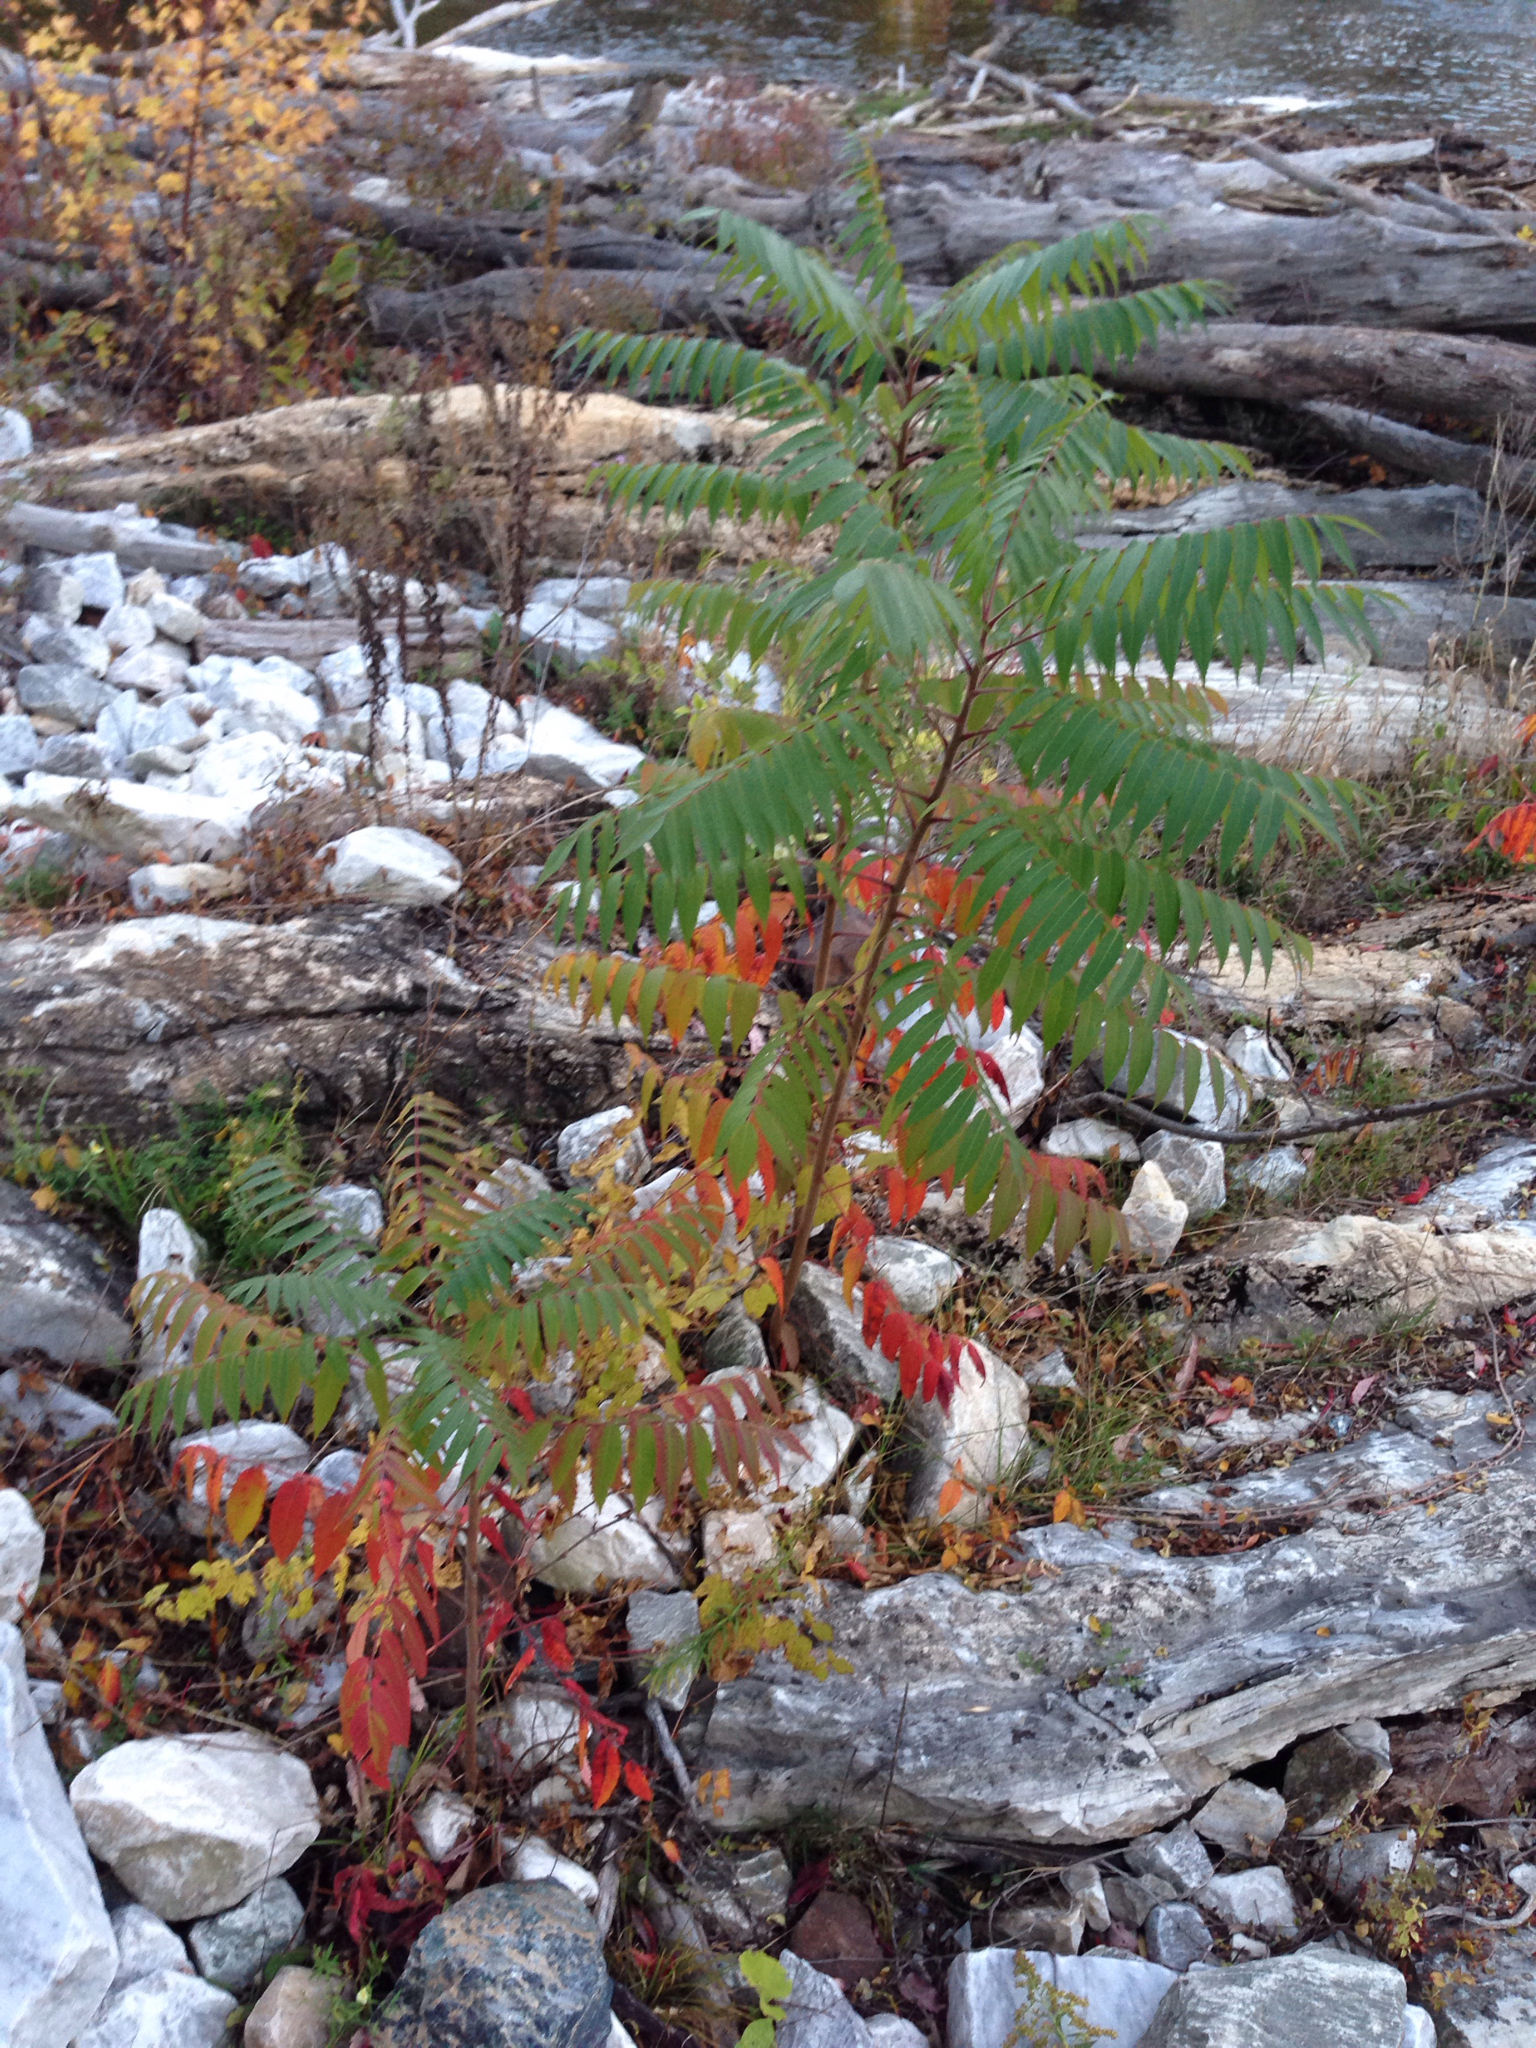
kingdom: Plantae
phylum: Tracheophyta
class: Magnoliopsida
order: Sapindales
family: Anacardiaceae
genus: Rhus
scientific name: Rhus typhina
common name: Staghorn sumac
